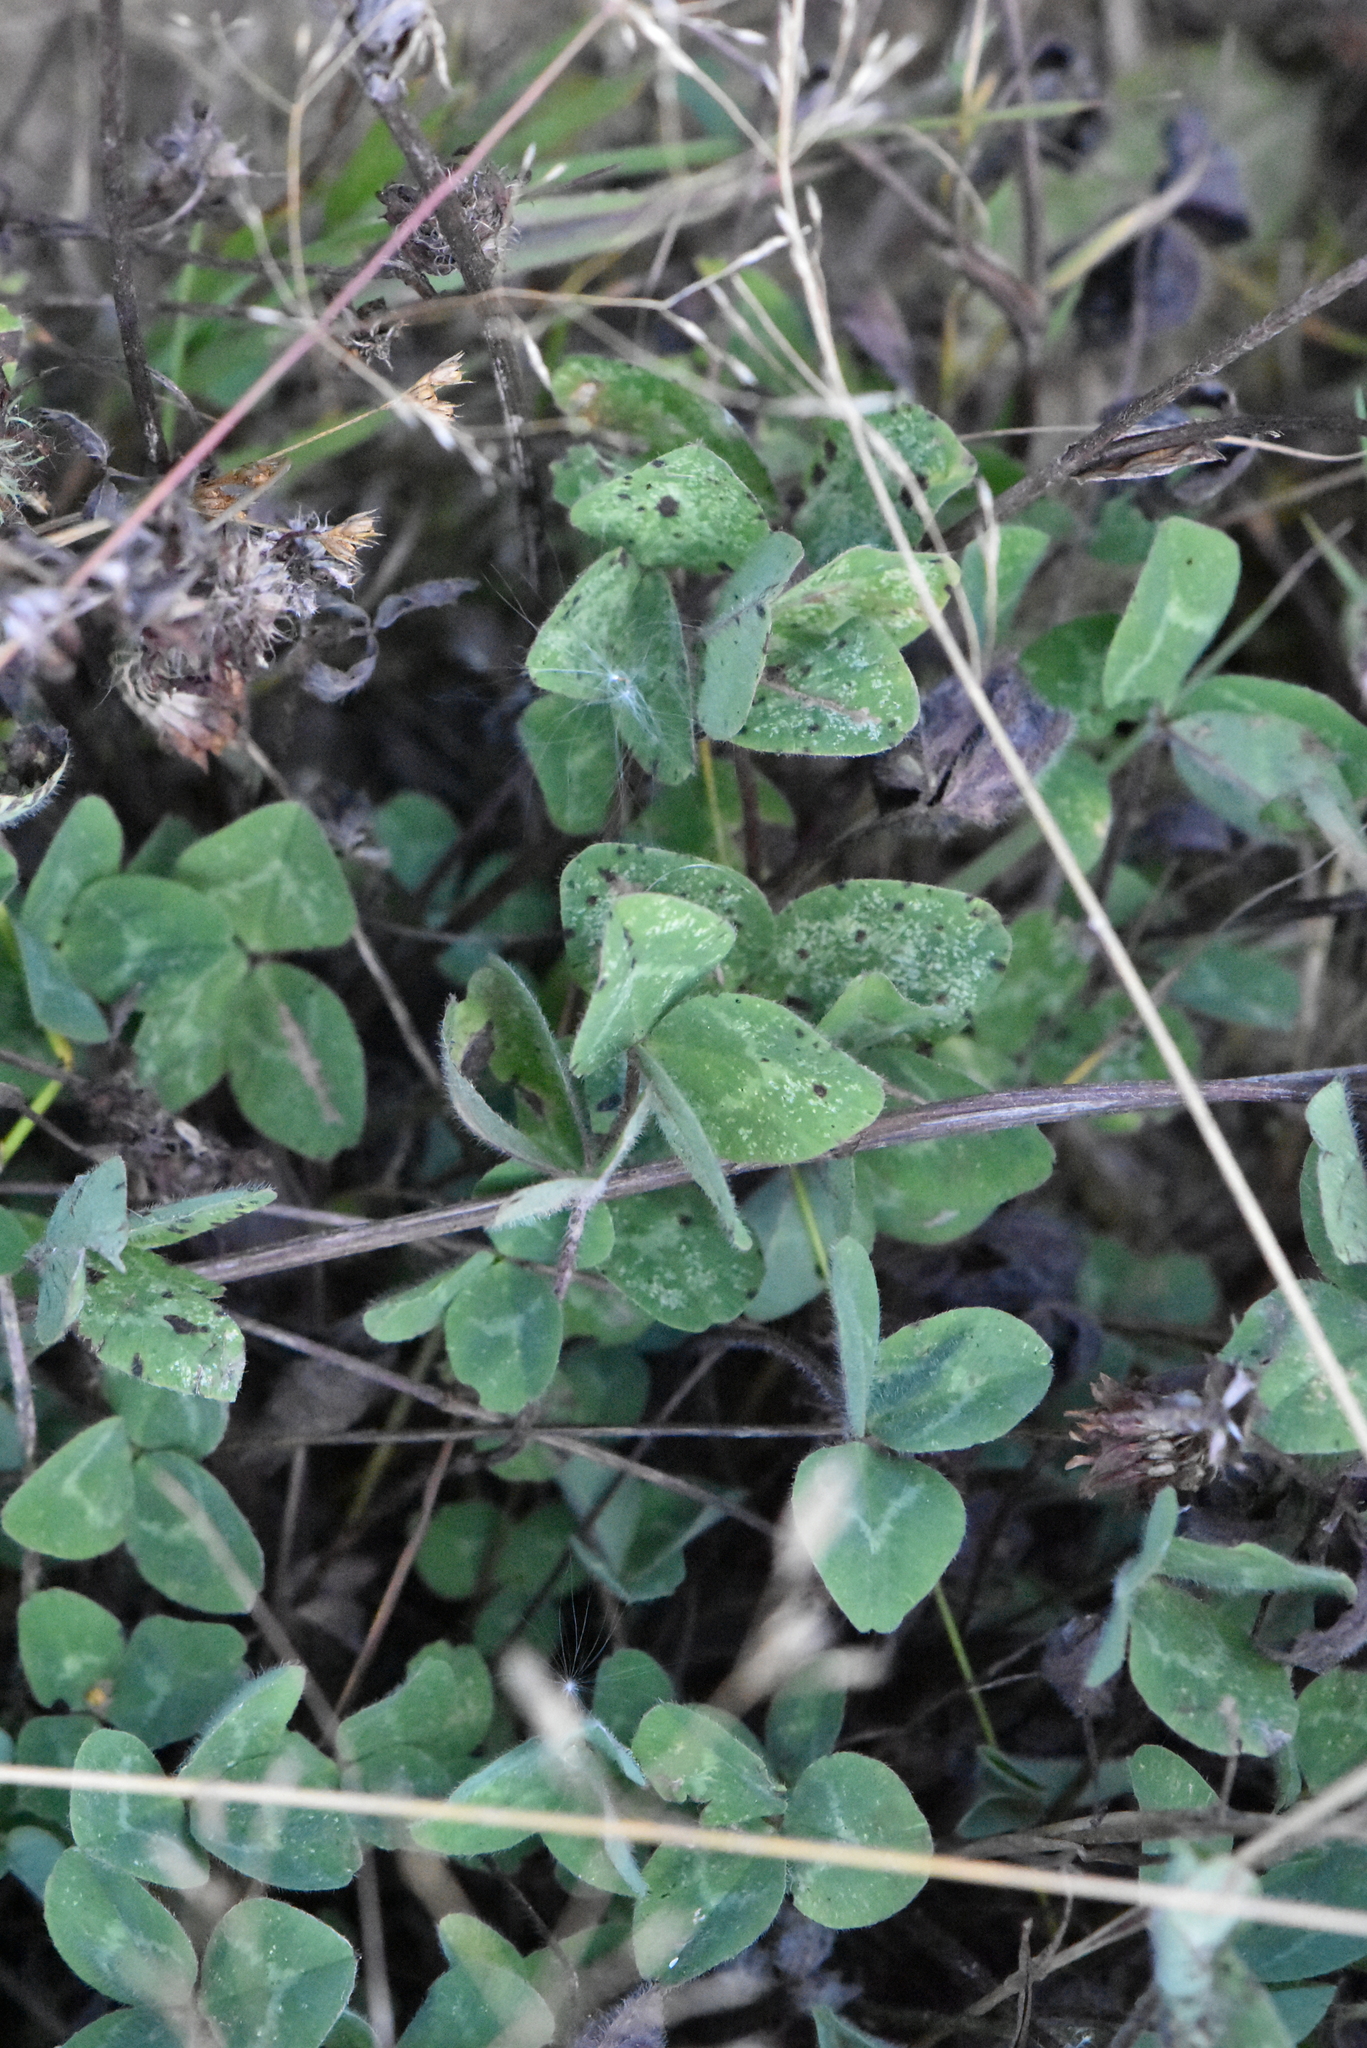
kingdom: Plantae
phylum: Tracheophyta
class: Magnoliopsida
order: Fabales
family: Fabaceae
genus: Trifolium
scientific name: Trifolium repens
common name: White clover
